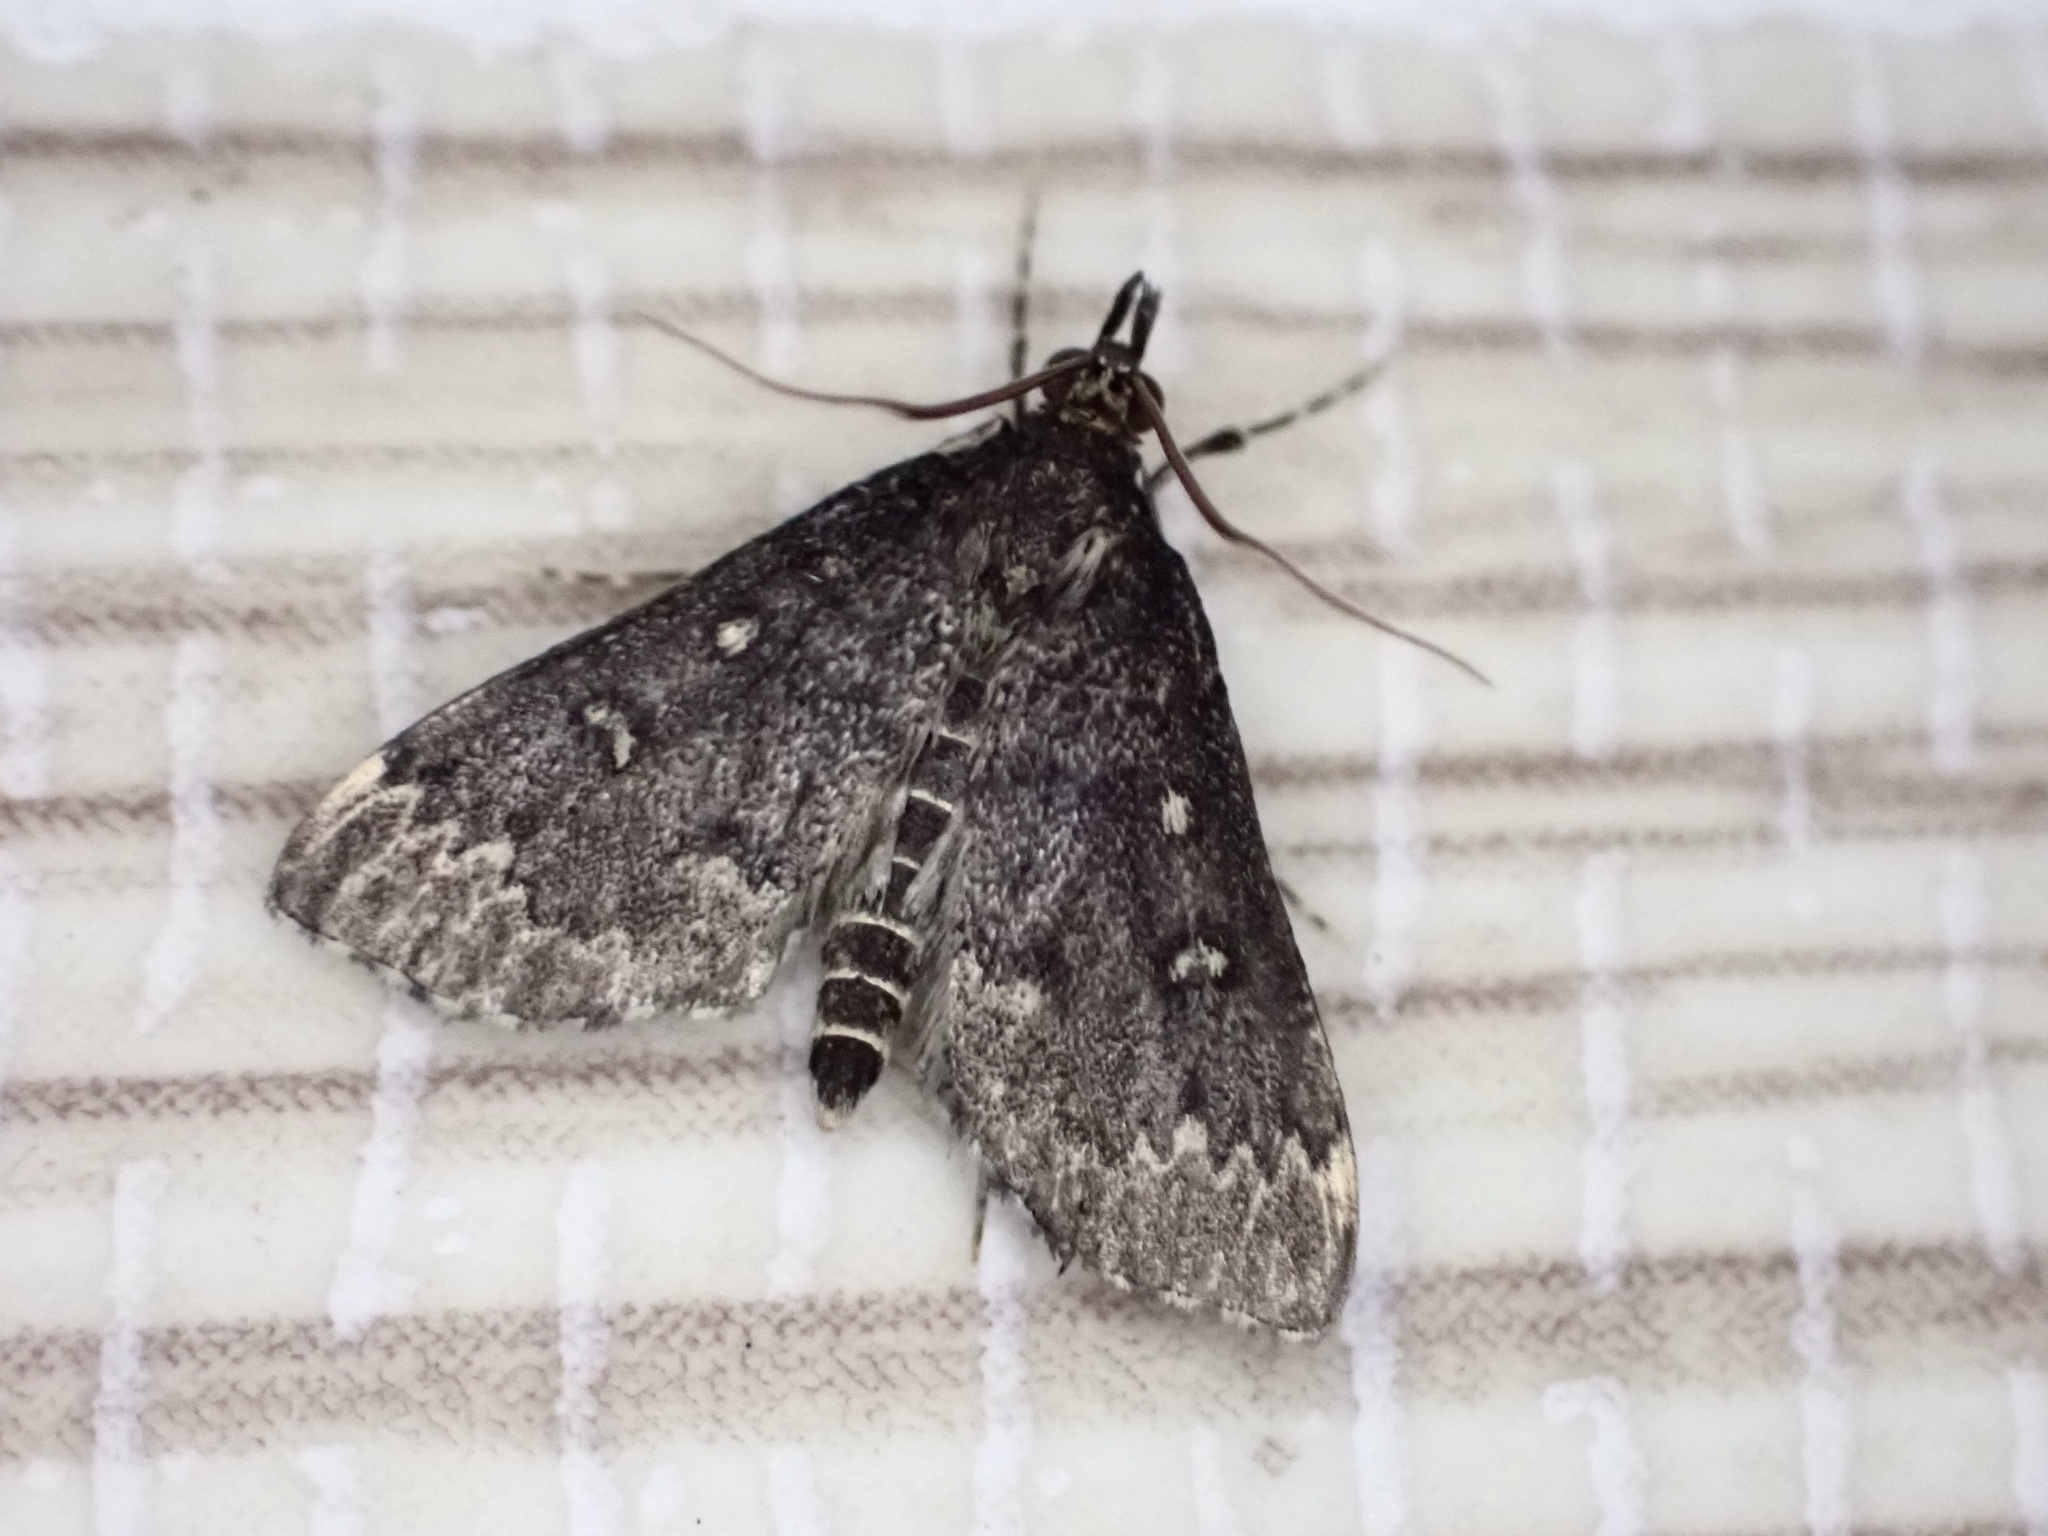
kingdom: Animalia
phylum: Arthropoda
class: Insecta
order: Lepidoptera
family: Crambidae
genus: Loxostege
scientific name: Loxostege Proternia philocapna
